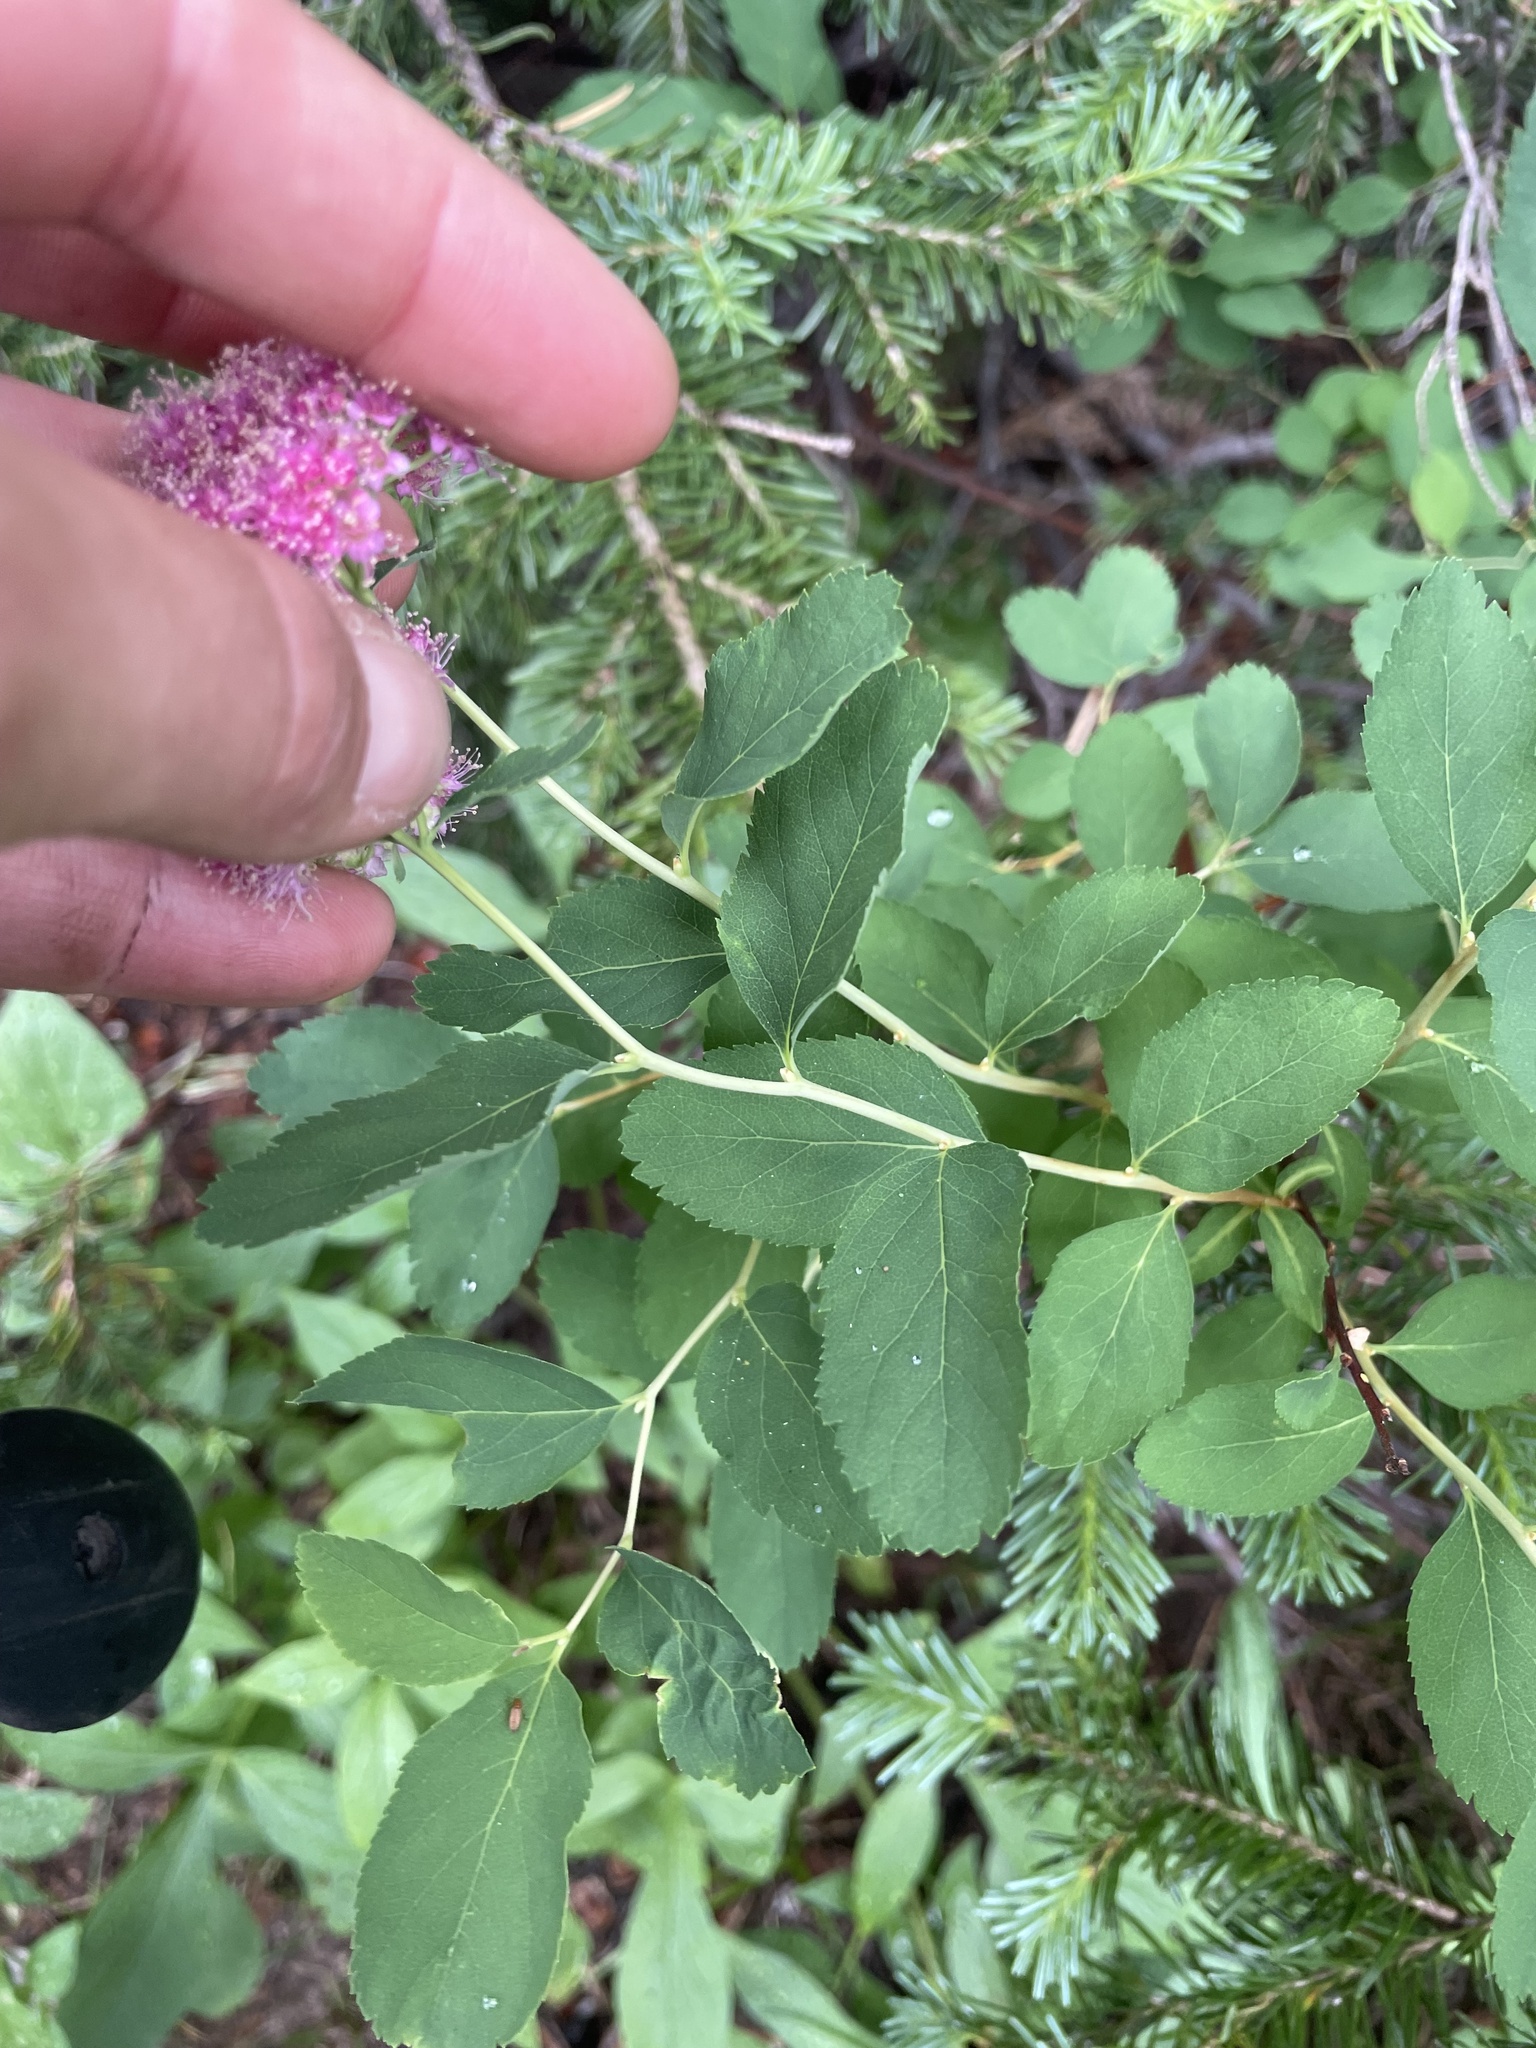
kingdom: Plantae
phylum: Tracheophyta
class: Magnoliopsida
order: Rosales
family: Rosaceae
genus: Spiraea
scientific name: Spiraea splendens
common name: Subalpine meadowsweet
